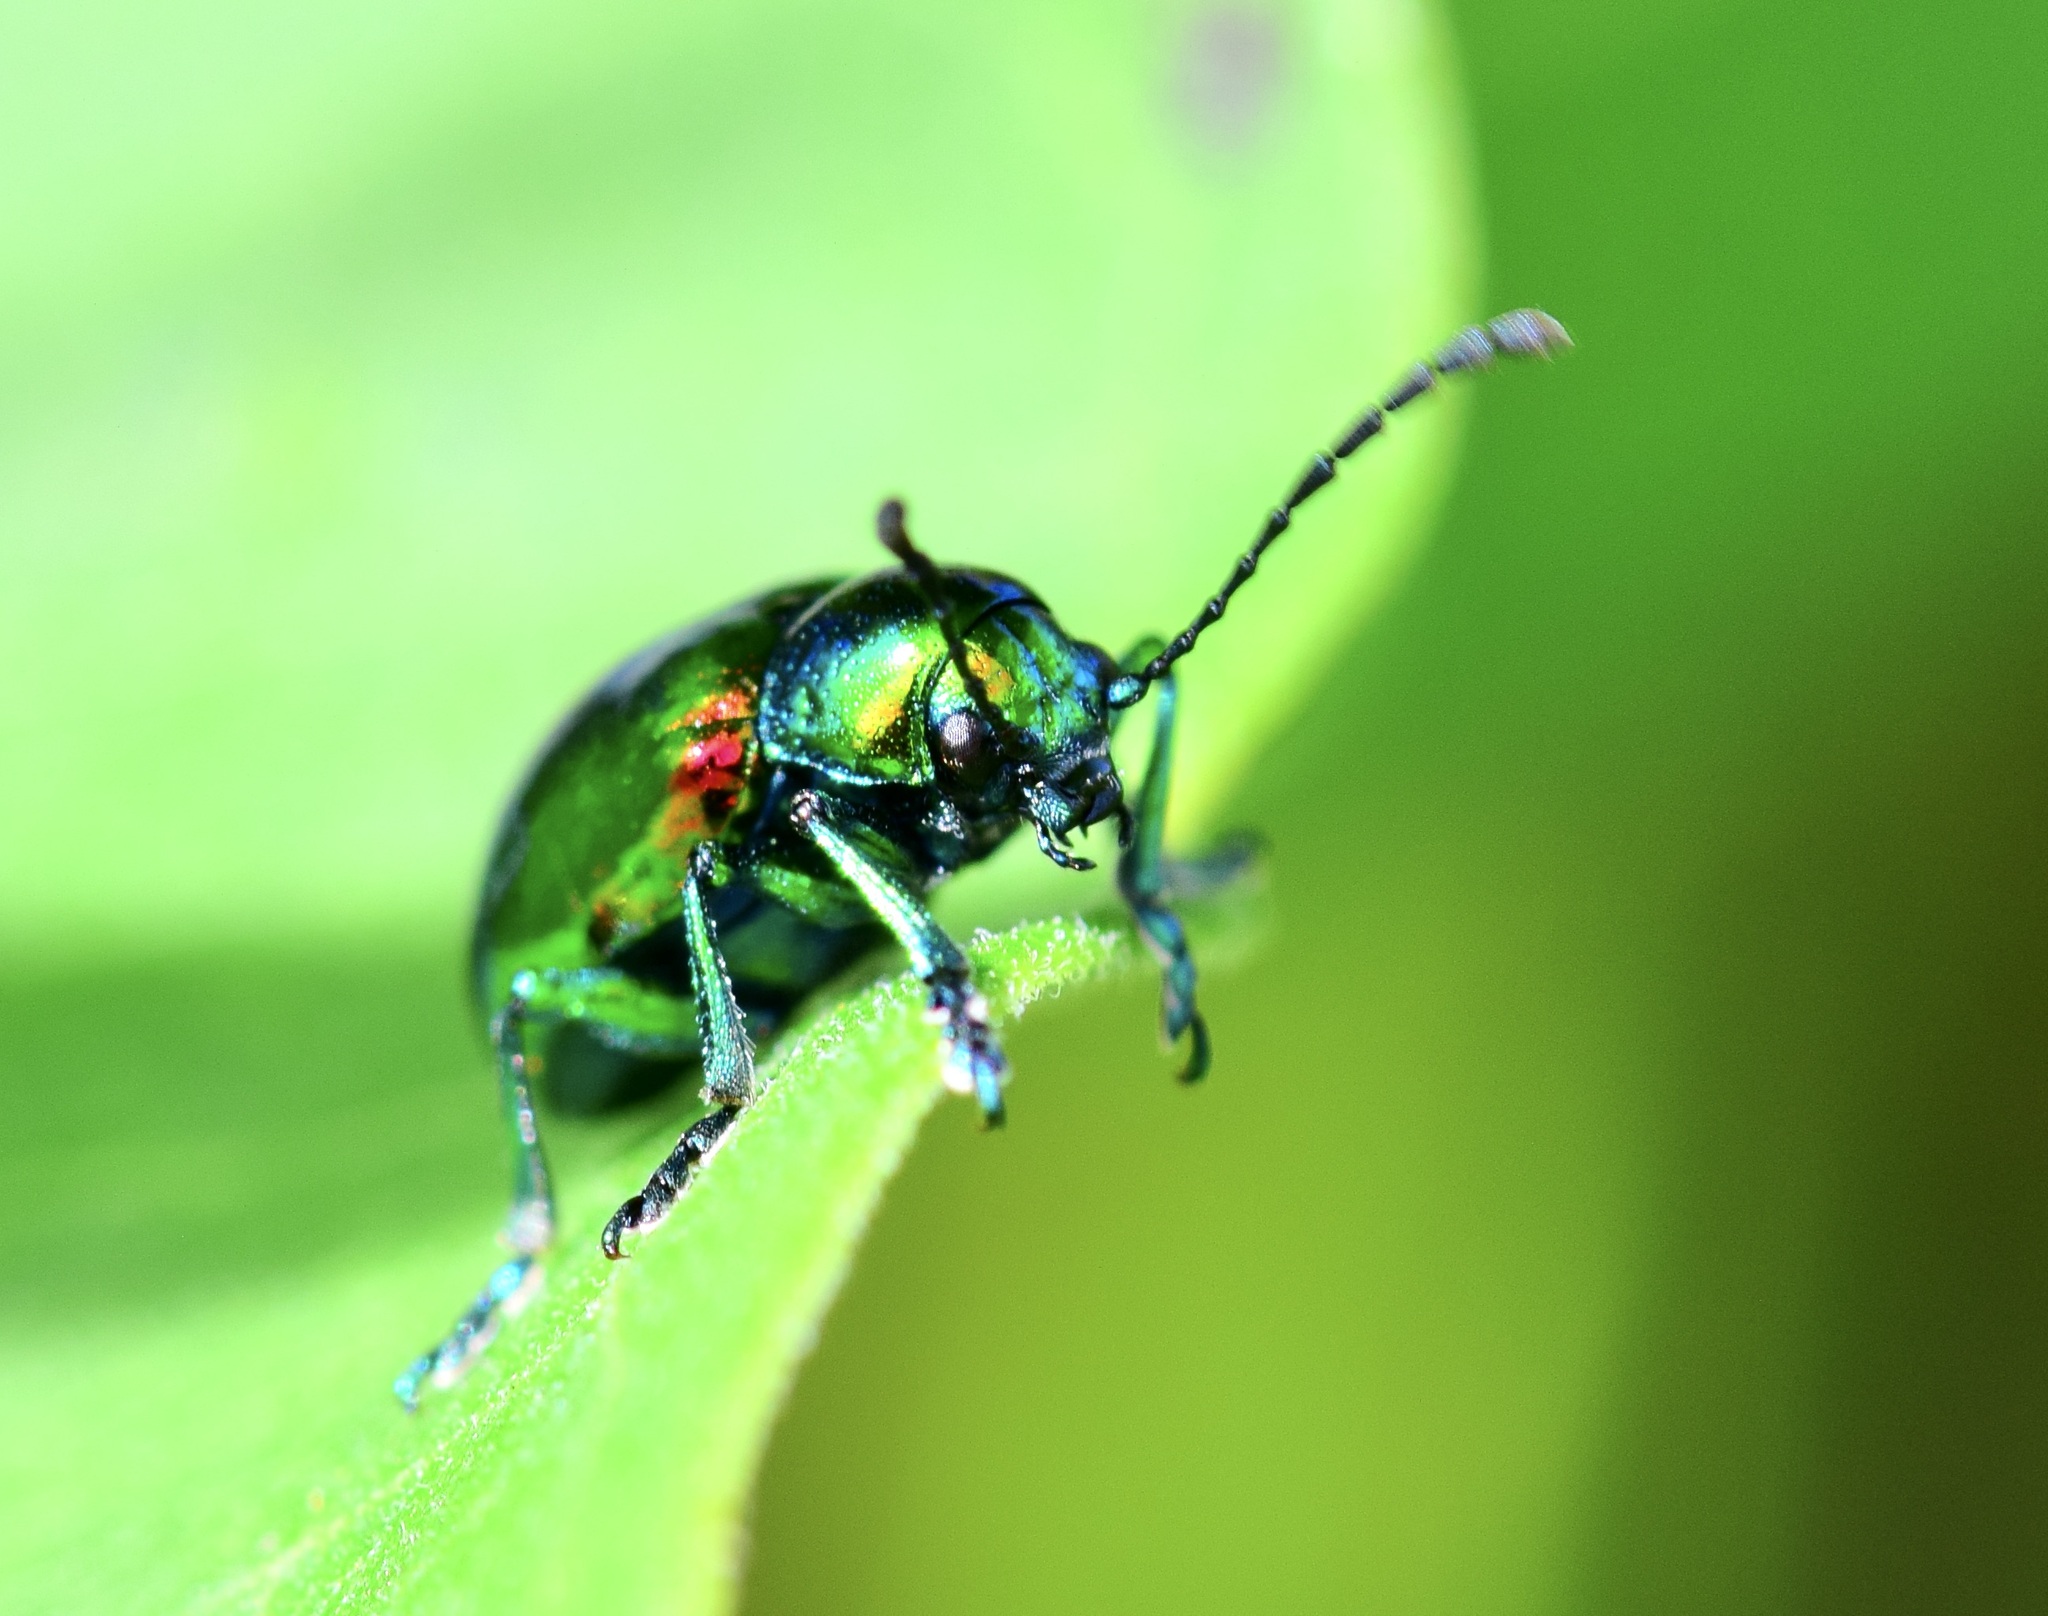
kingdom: Animalia
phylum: Arthropoda
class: Insecta
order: Coleoptera
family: Chrysomelidae
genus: Chrysochus
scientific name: Chrysochus auratus
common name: Dogbane leaf beetle
